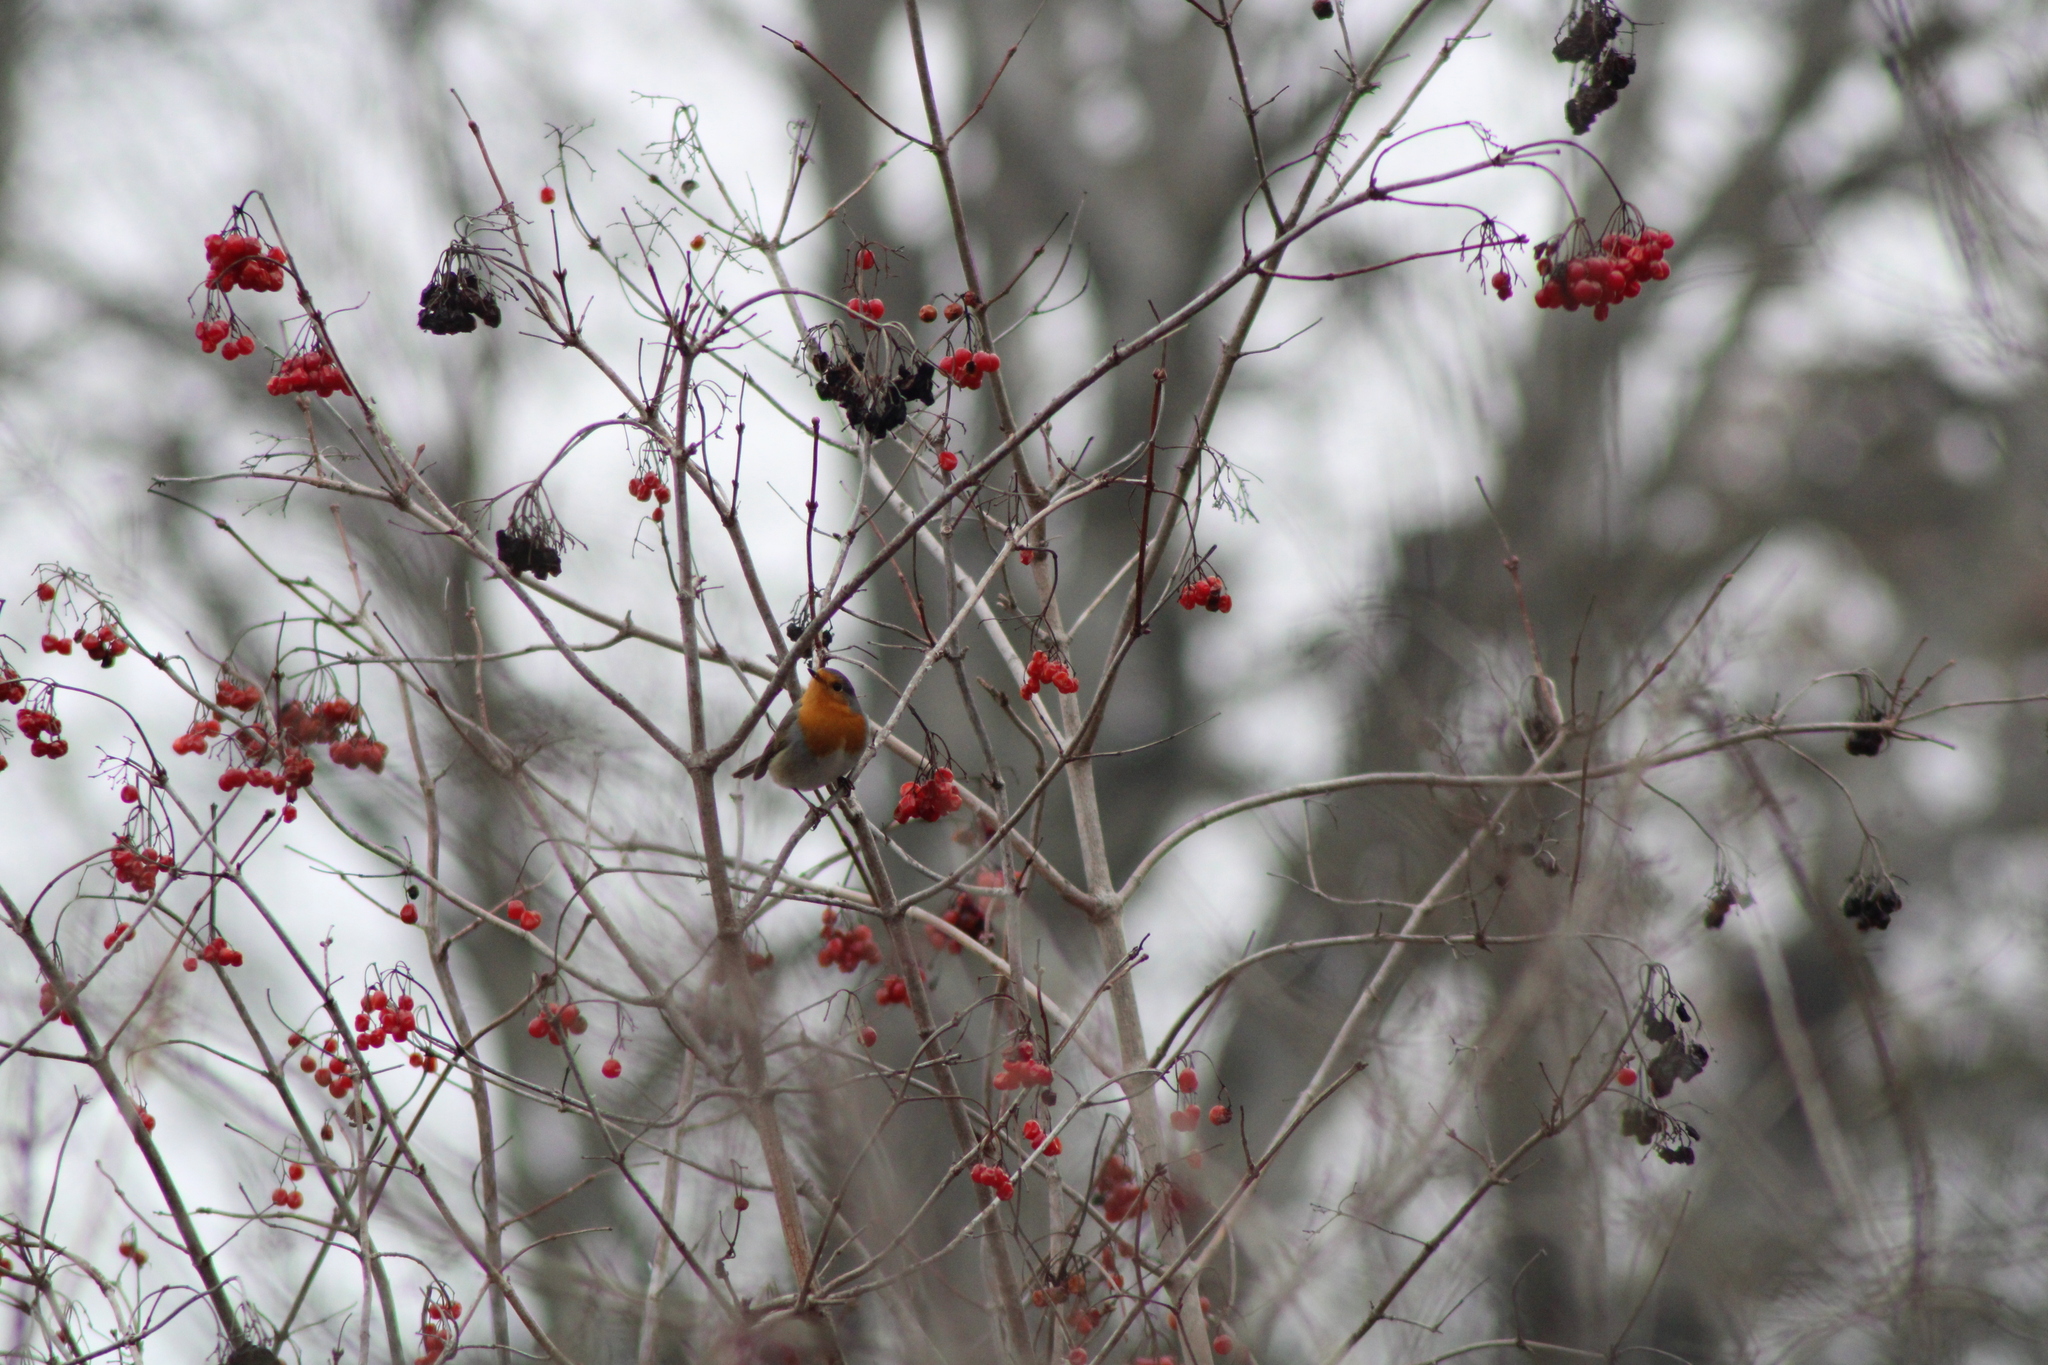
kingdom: Animalia
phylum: Chordata
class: Aves
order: Passeriformes
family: Muscicapidae
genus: Erithacus
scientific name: Erithacus rubecula
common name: European robin
